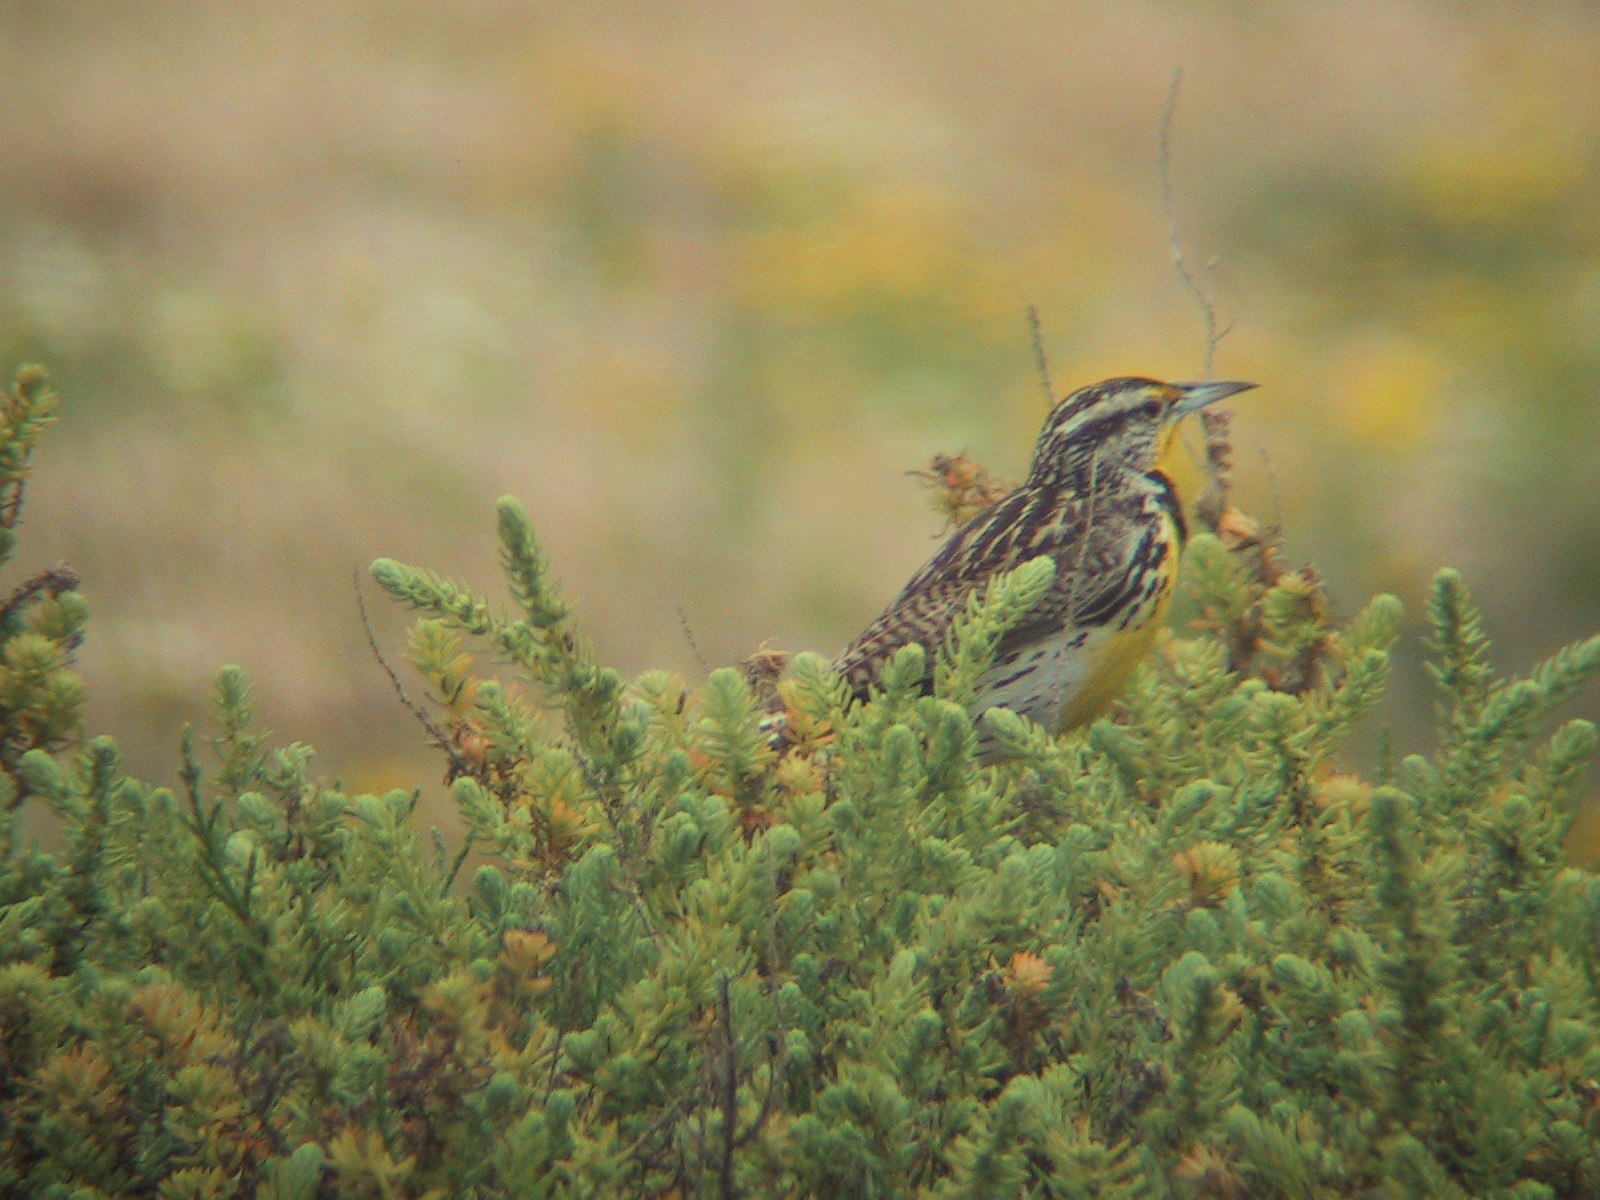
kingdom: Animalia
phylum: Chordata
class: Aves
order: Passeriformes
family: Icteridae
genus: Sturnella
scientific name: Sturnella neglecta
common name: Western meadowlark
